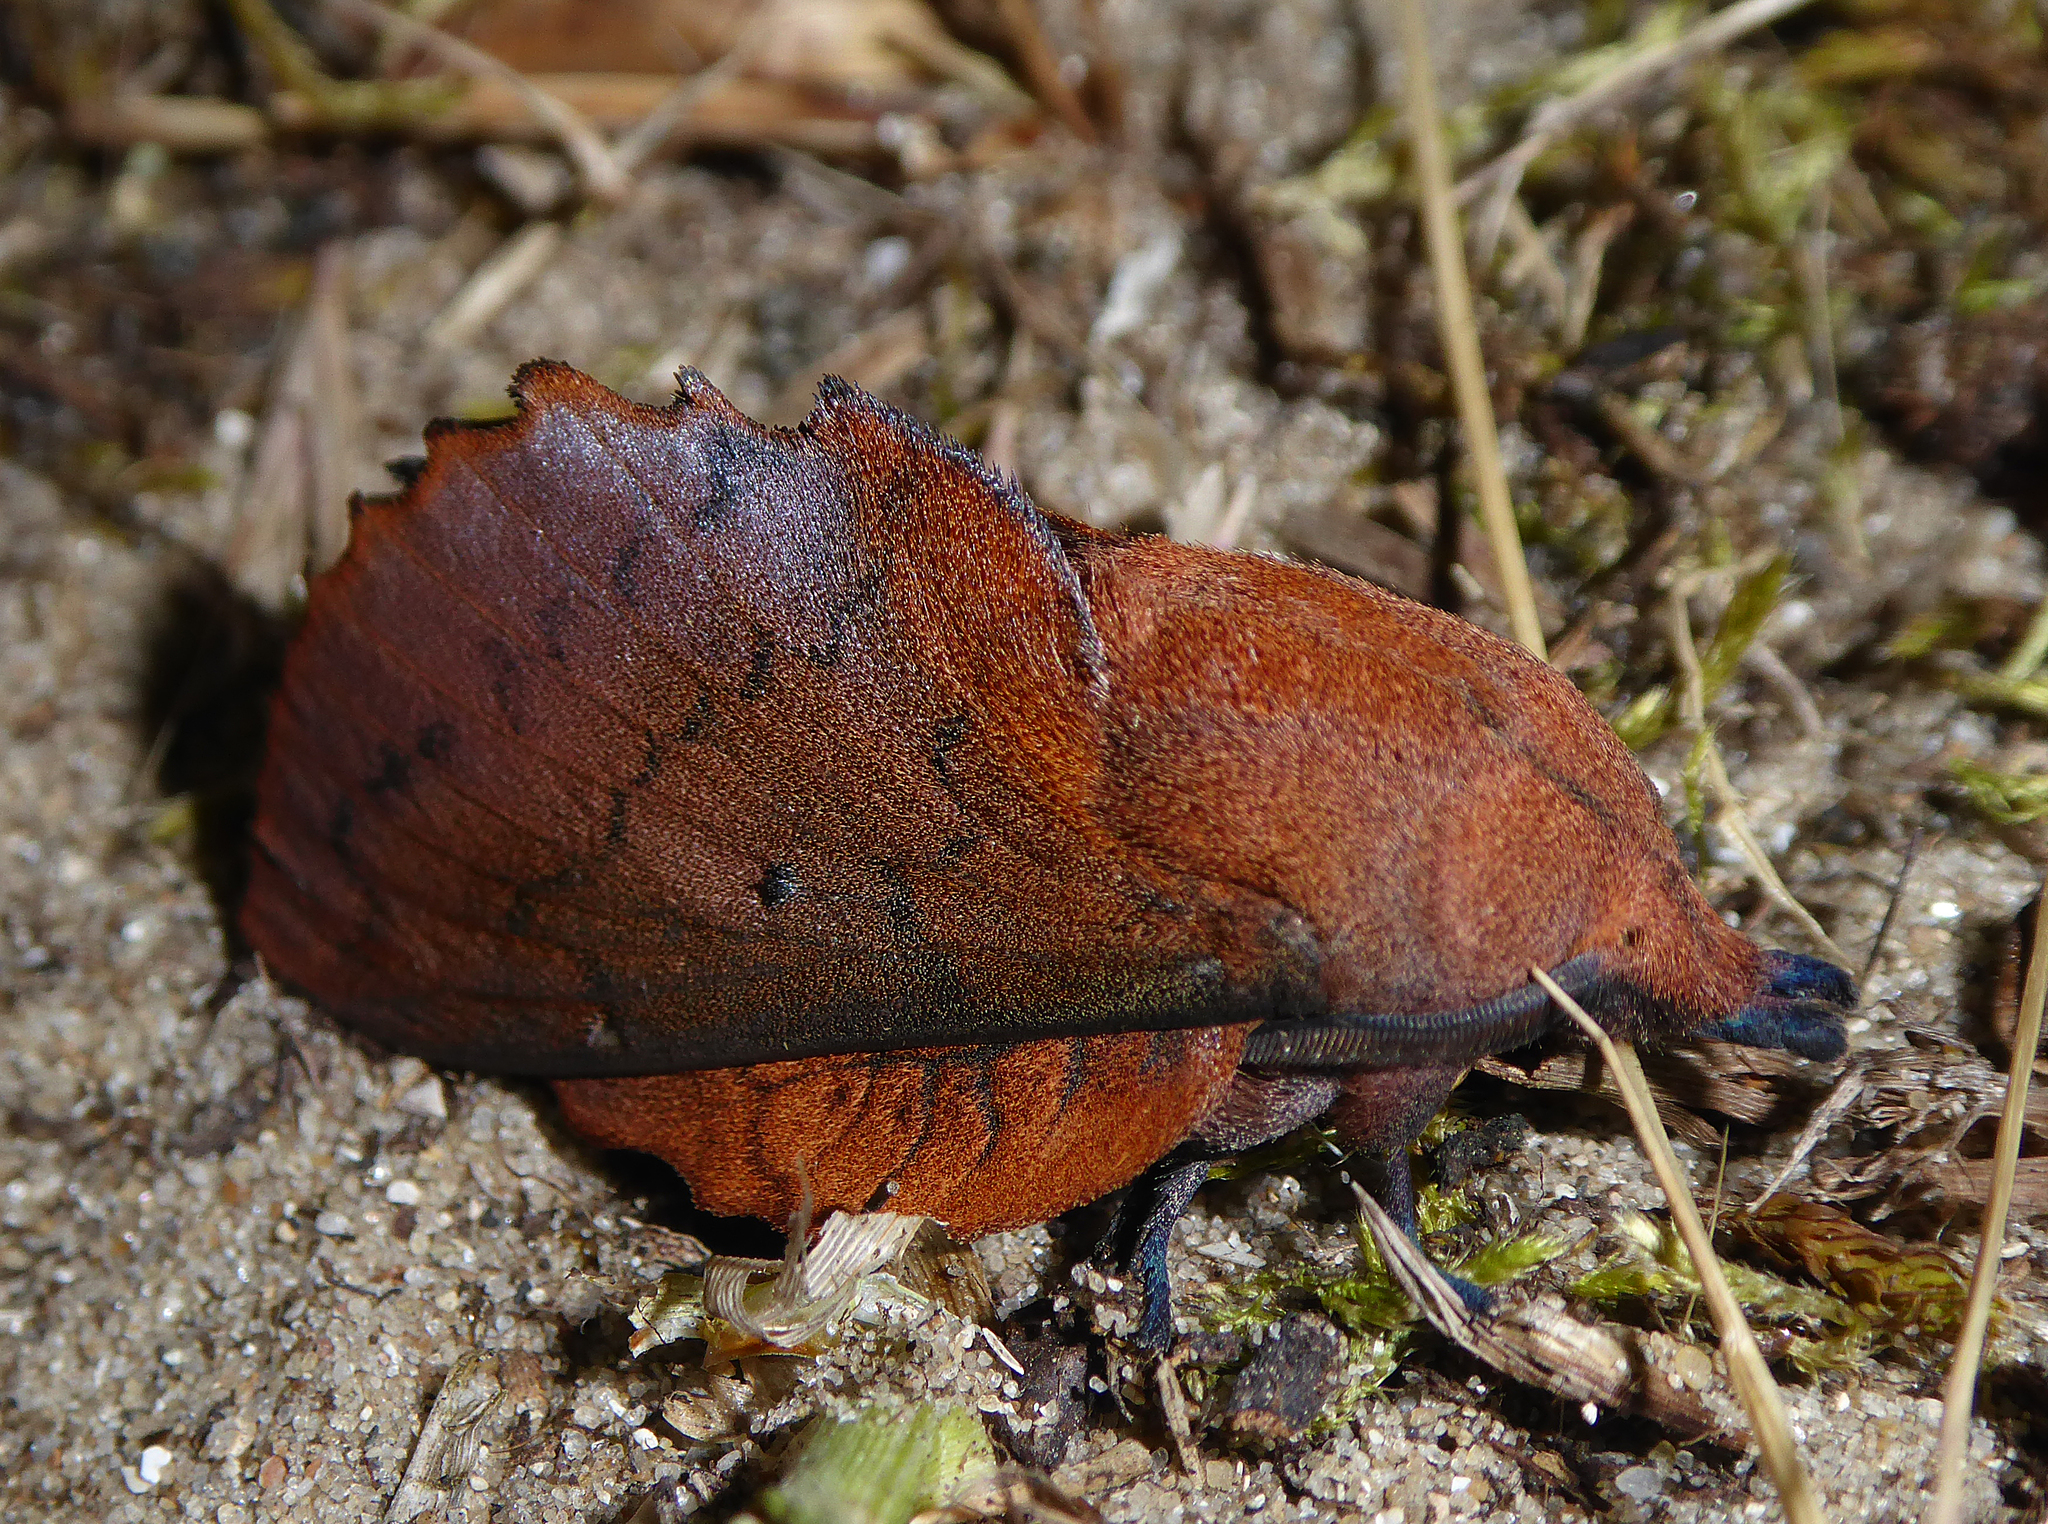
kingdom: Animalia
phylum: Arthropoda
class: Insecta
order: Lepidoptera
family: Lasiocampidae
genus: Gastropacha
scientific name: Gastropacha quercifolia
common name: Lappet
